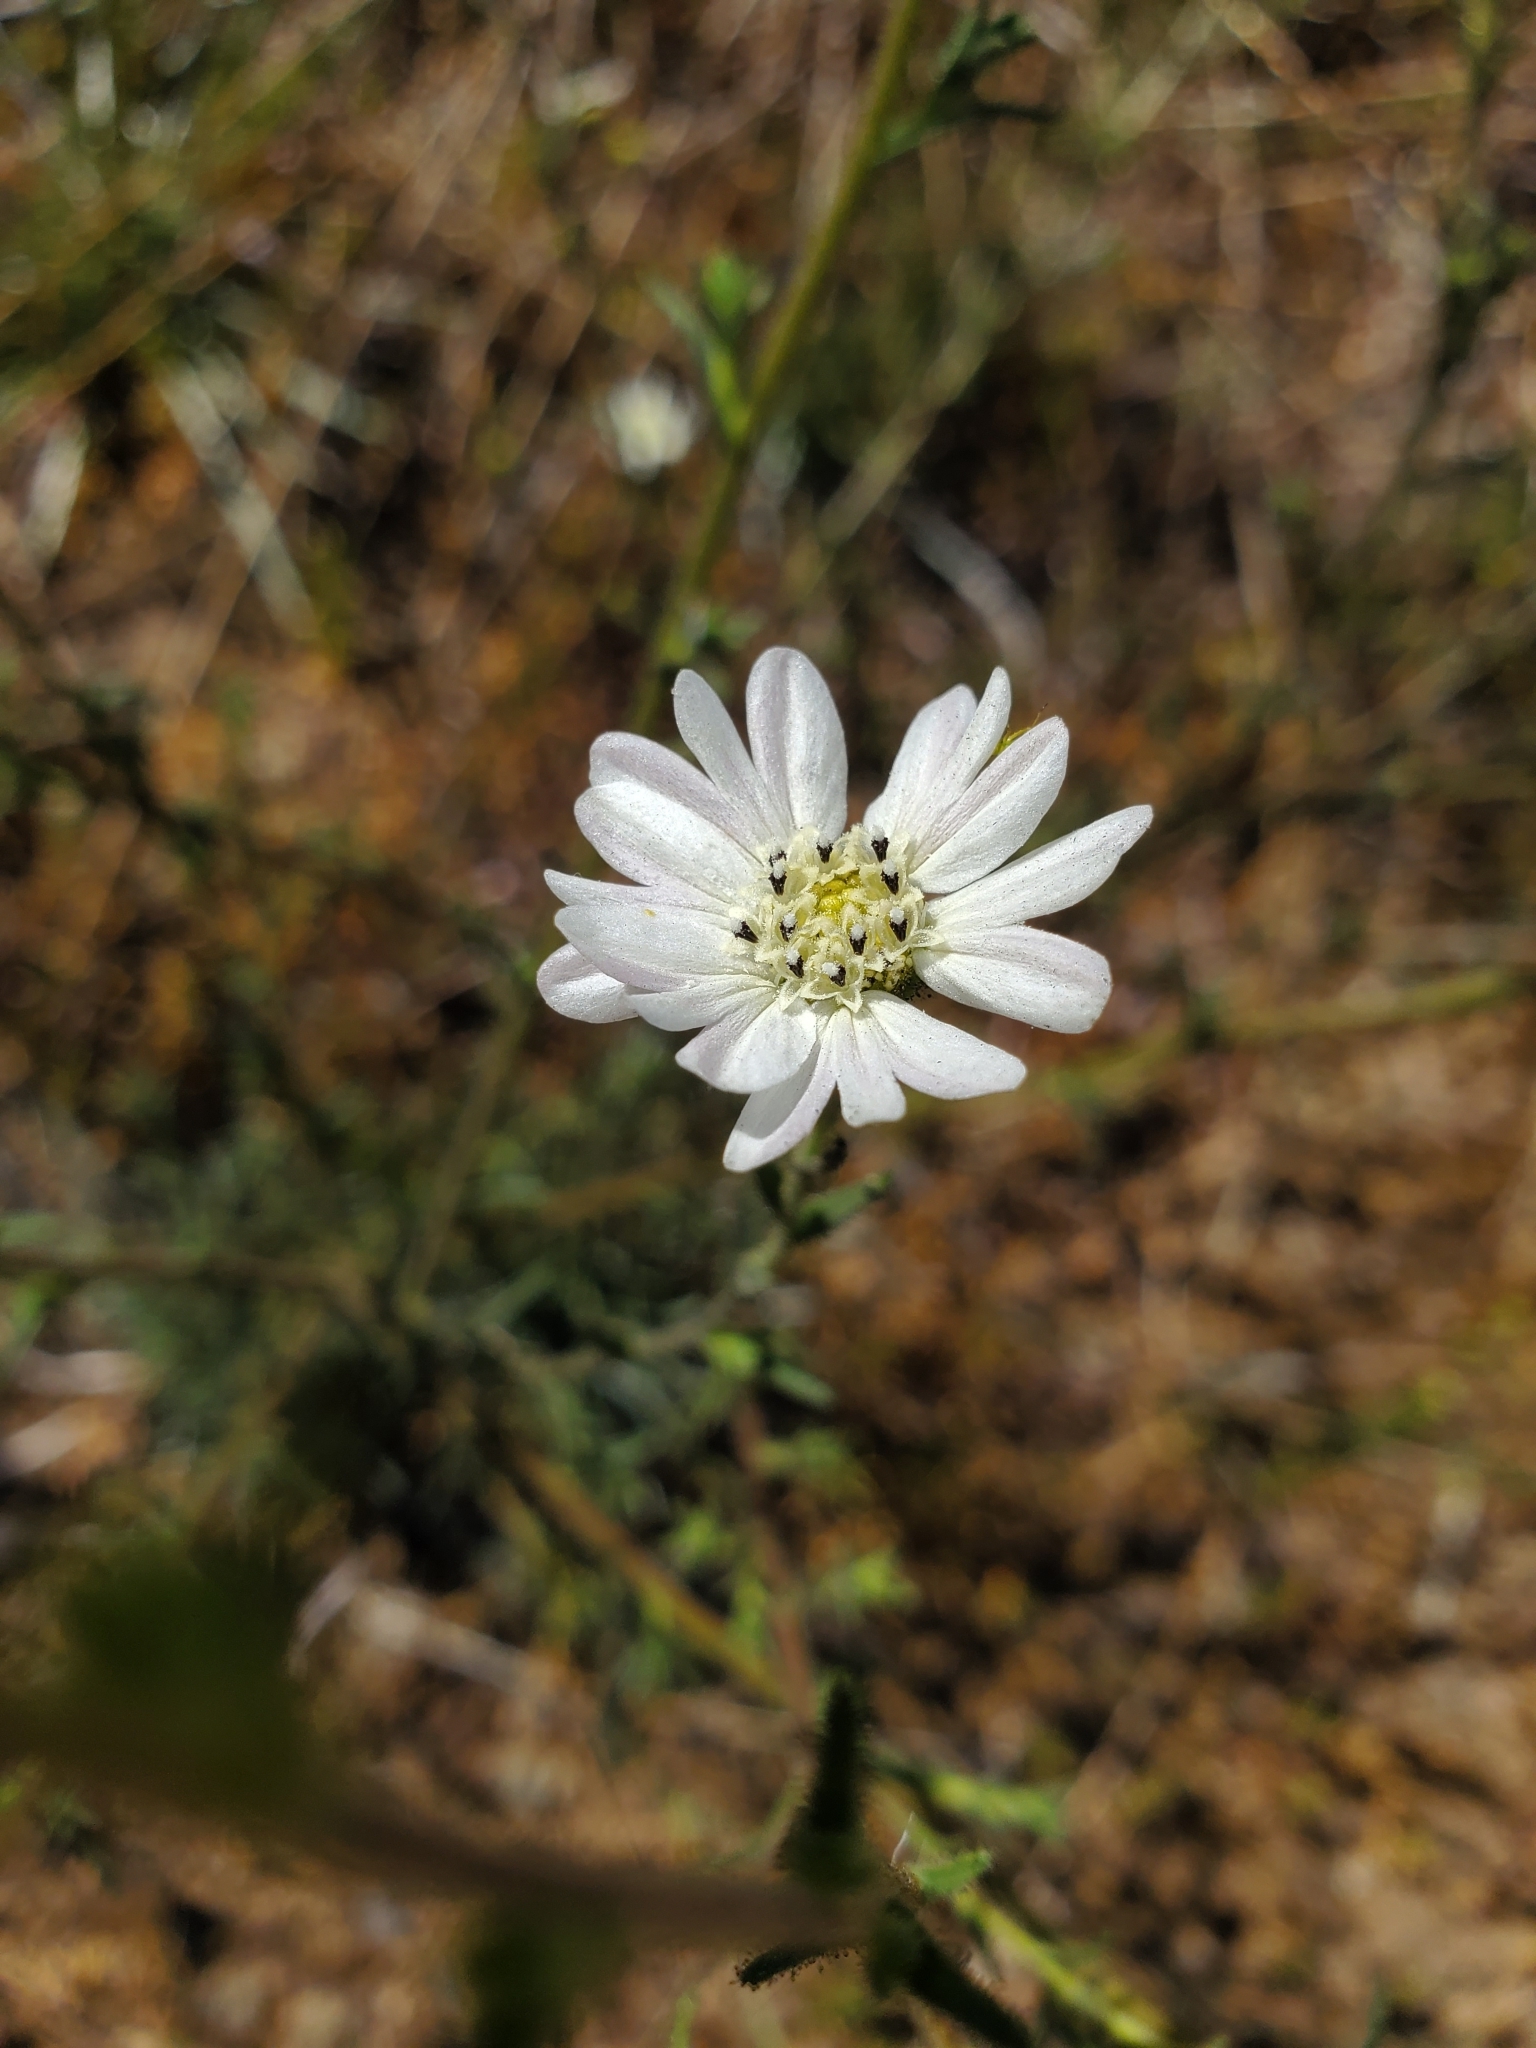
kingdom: Plantae
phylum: Tracheophyta
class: Magnoliopsida
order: Asterales
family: Asteraceae
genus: Hemizonia
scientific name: Hemizonia congesta
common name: Hayfield tarweed
